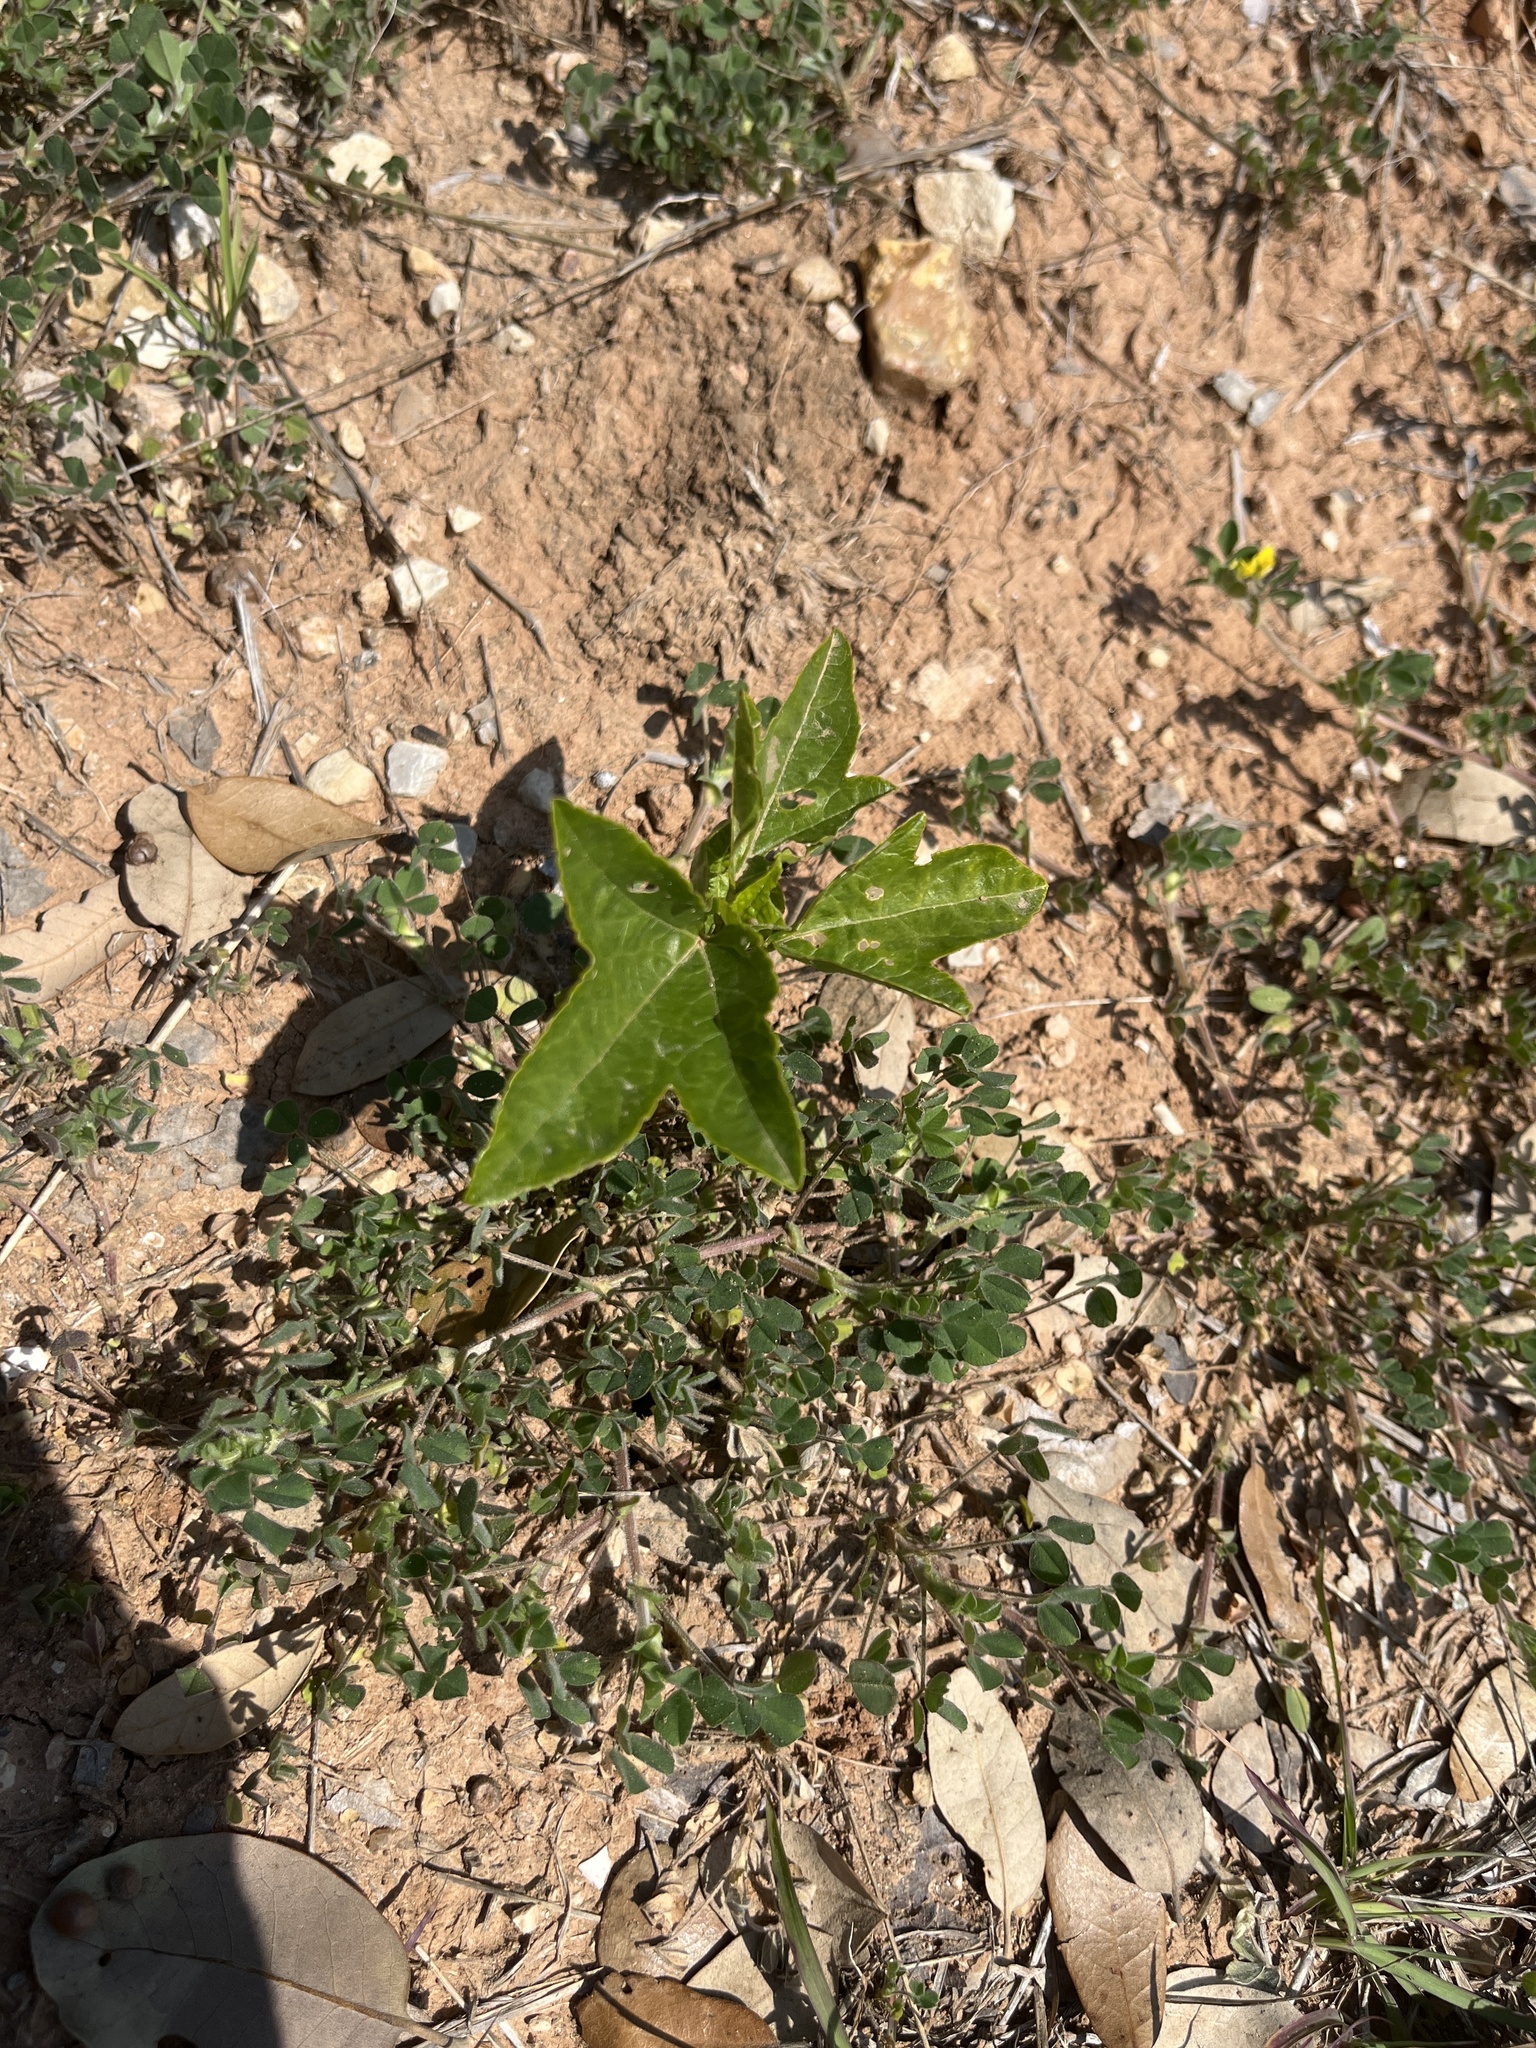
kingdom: Plantae
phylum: Tracheophyta
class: Magnoliopsida
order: Malpighiales
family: Passifloraceae
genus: Passiflora
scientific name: Passiflora incarnata
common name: Apricot-vine
